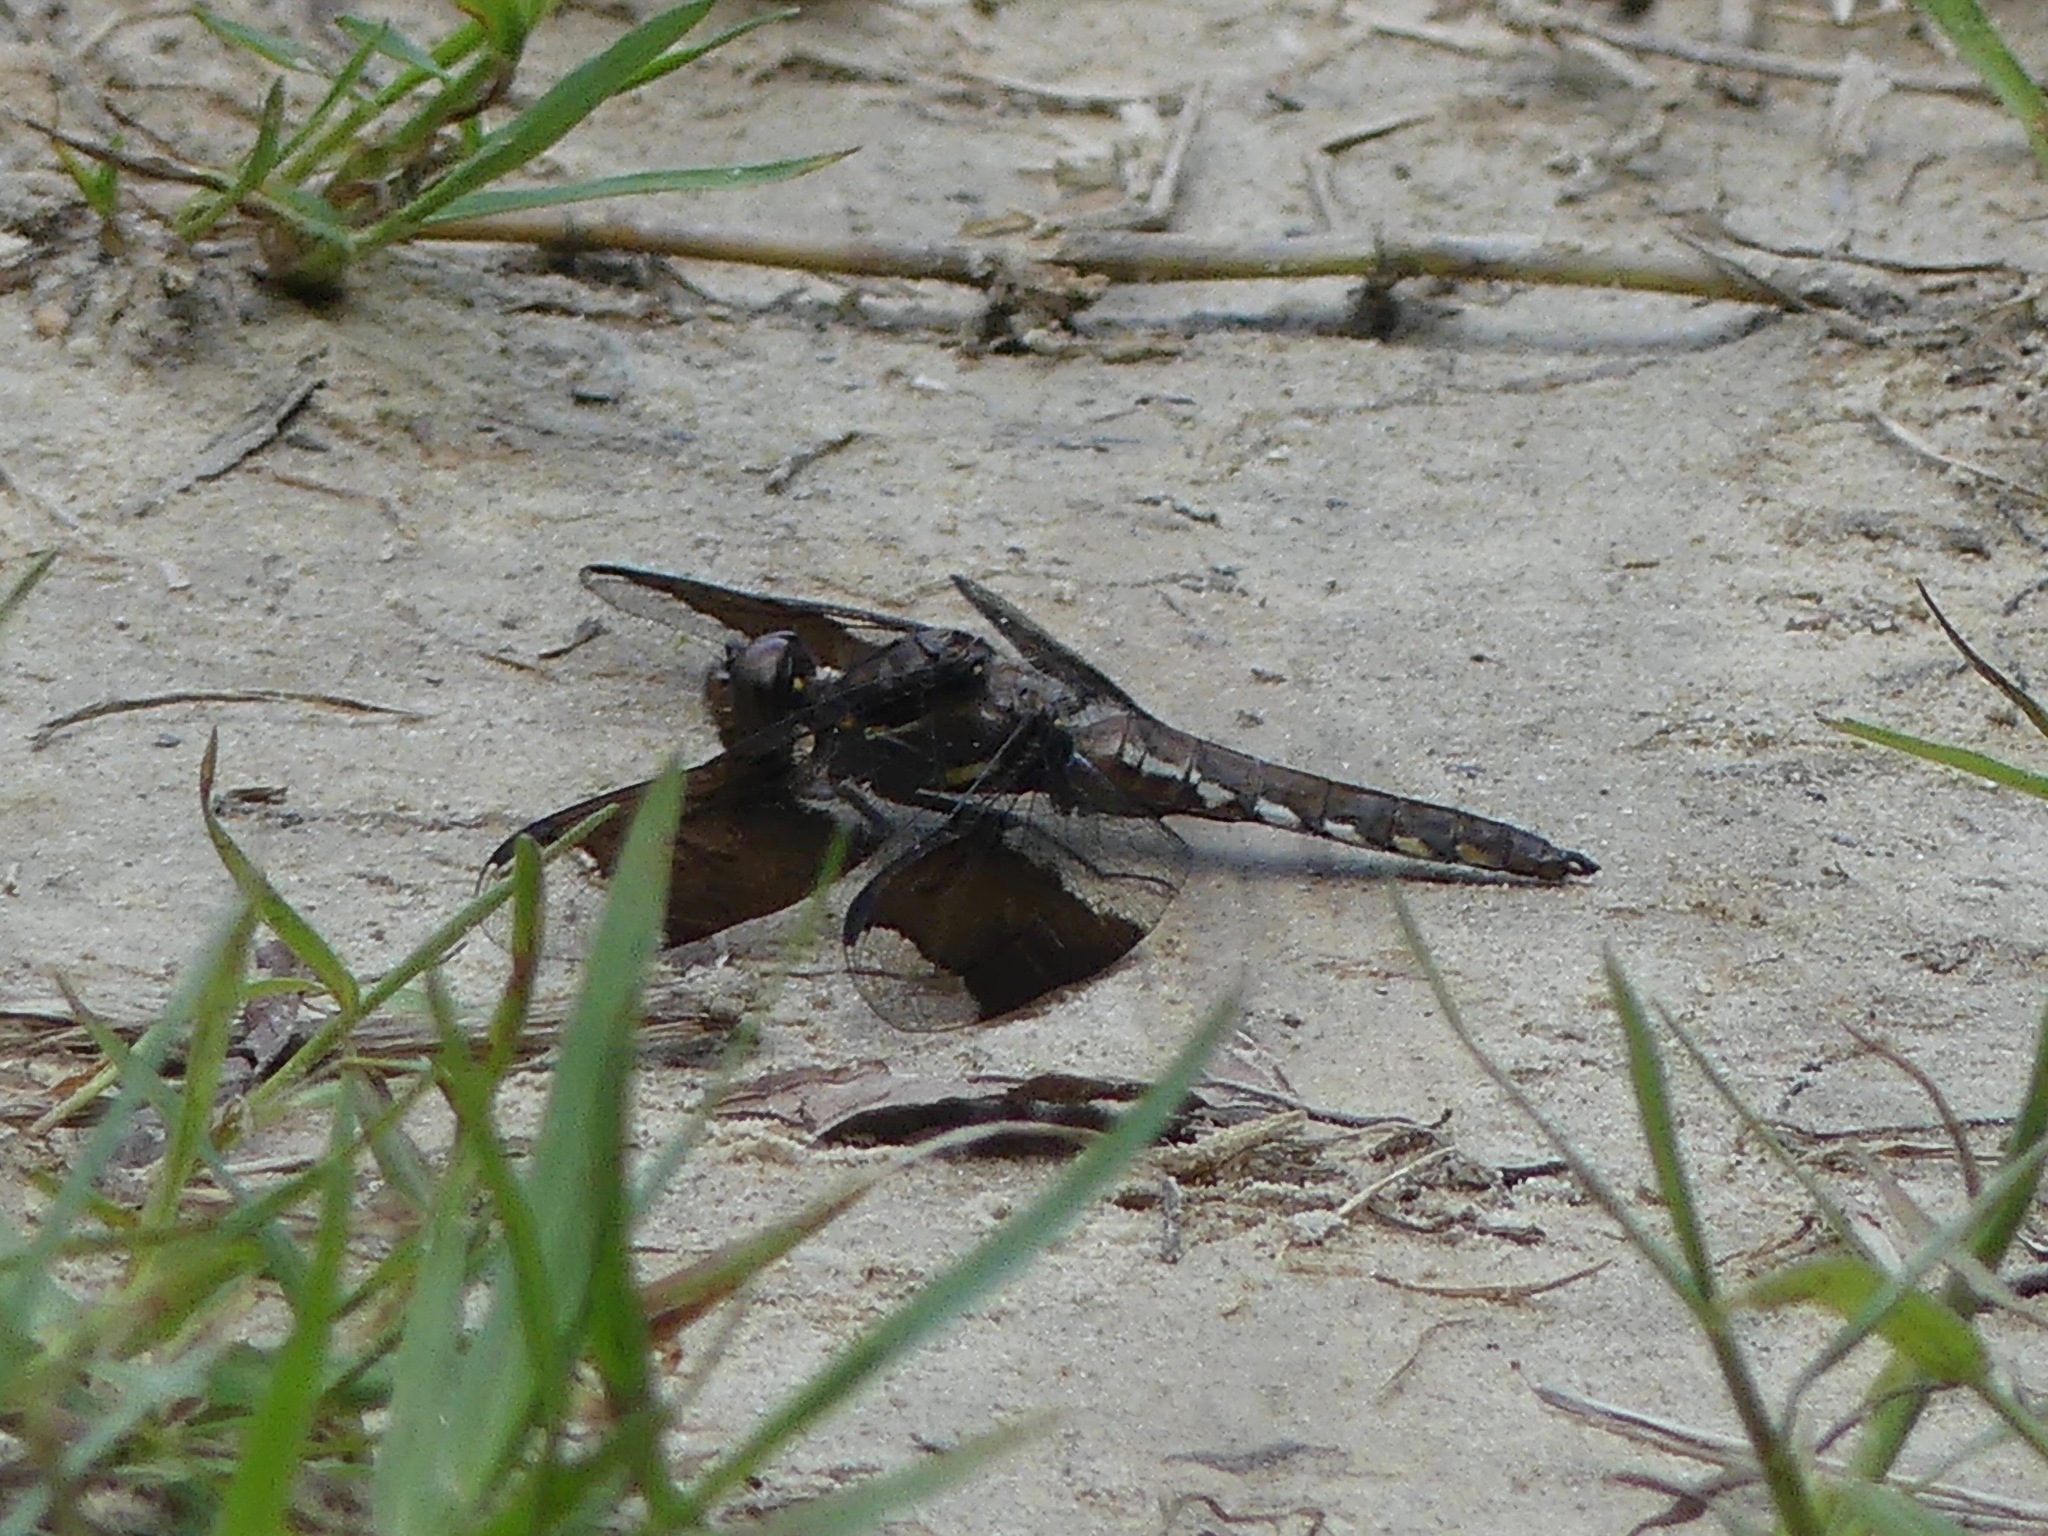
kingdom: Animalia
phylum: Arthropoda
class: Insecta
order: Odonata
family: Libellulidae
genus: Plathemis
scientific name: Plathemis lydia
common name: Common whitetail
